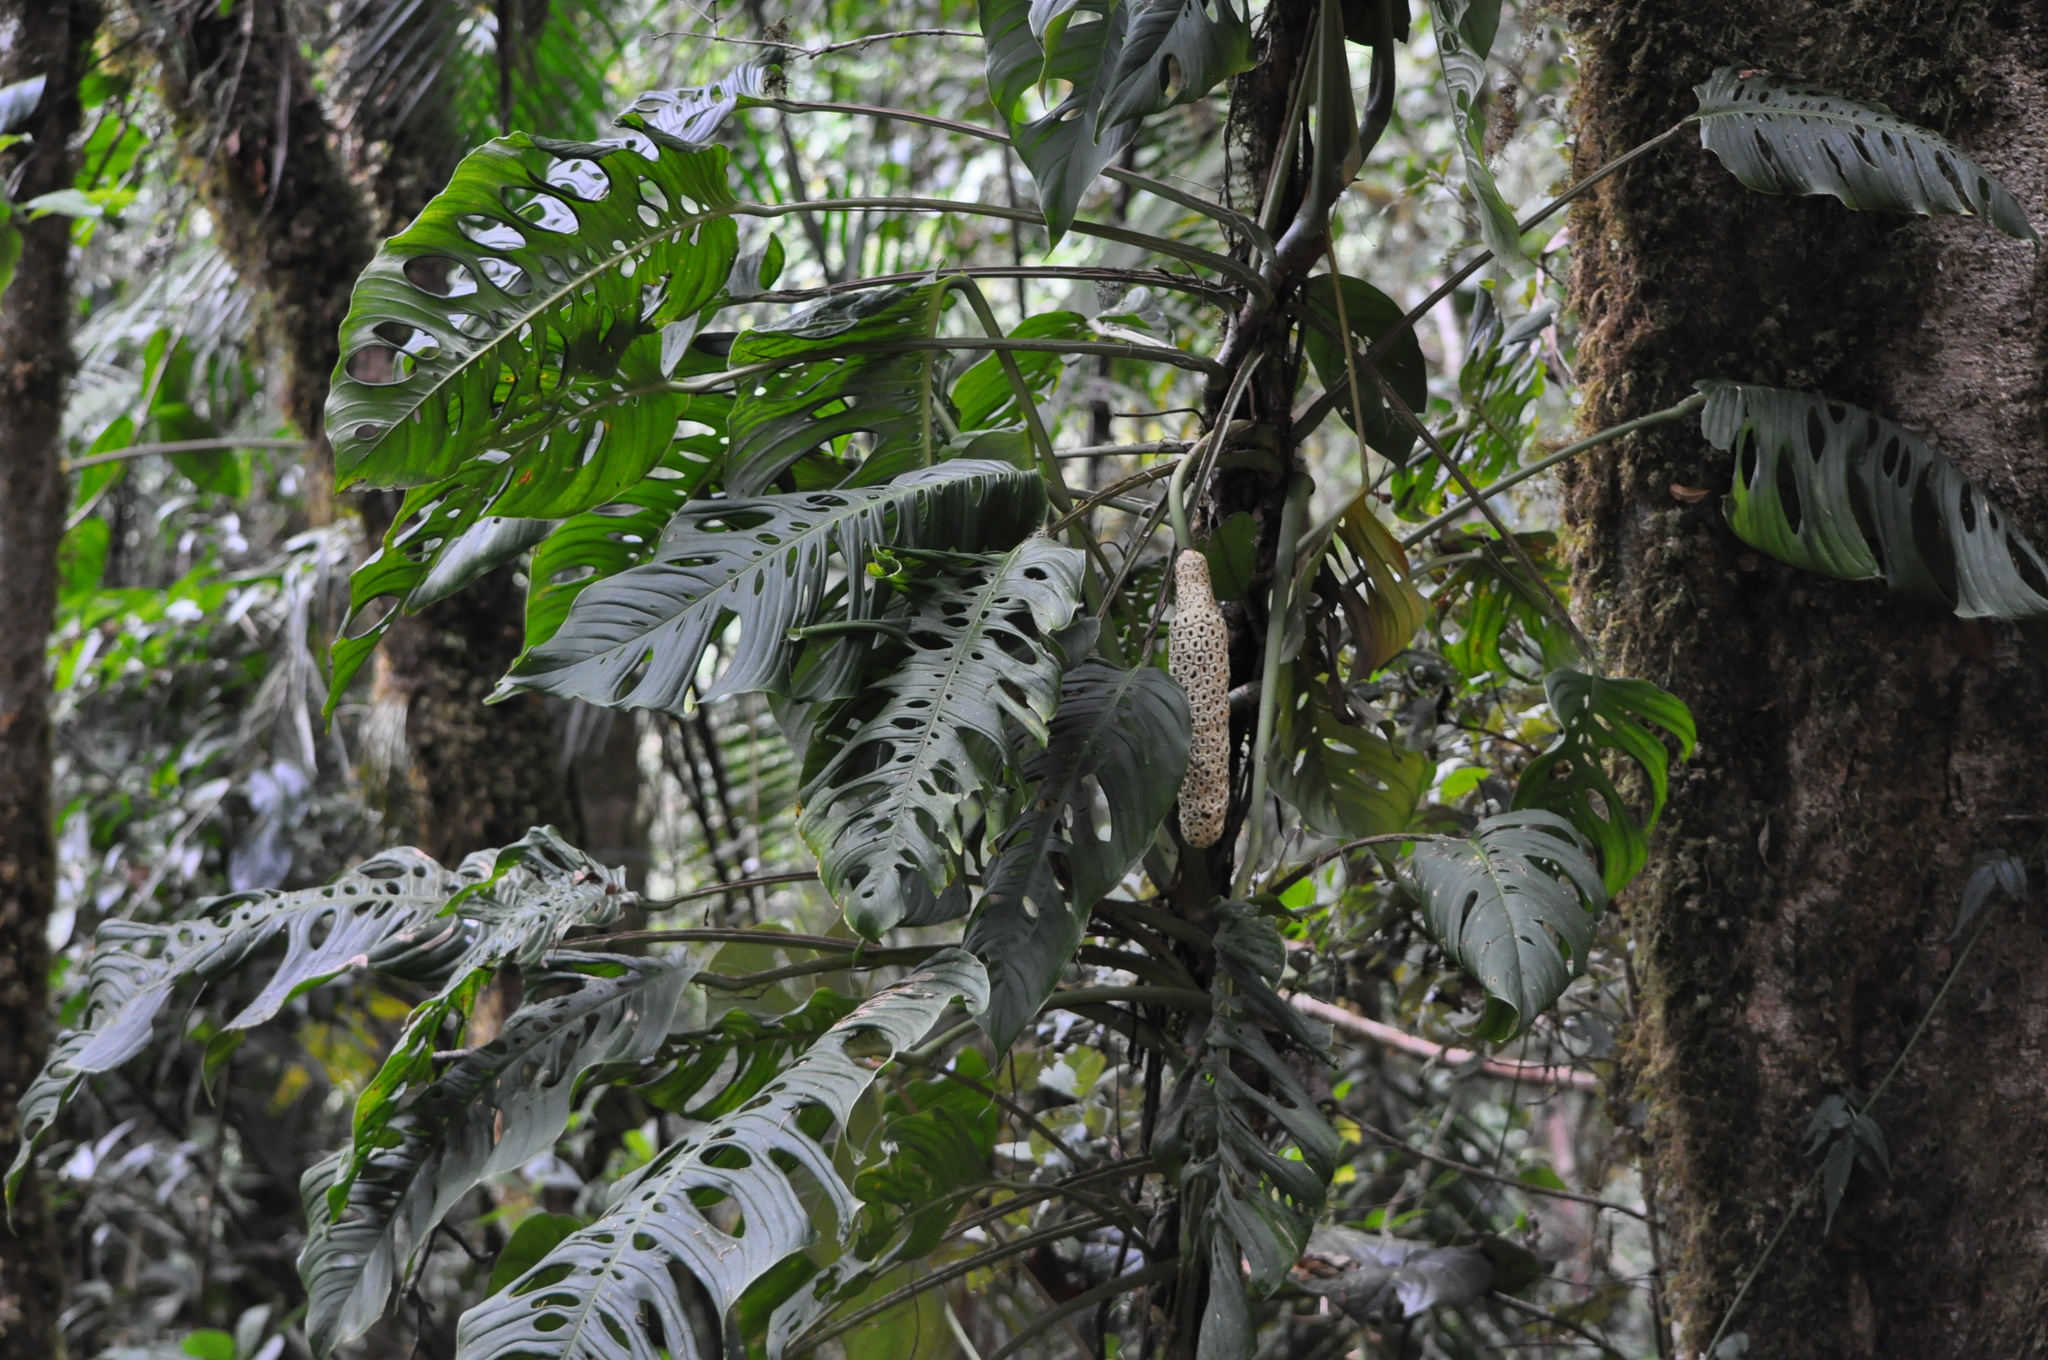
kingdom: Plantae
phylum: Tracheophyta
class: Liliopsida
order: Alismatales
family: Araceae
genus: Monstera
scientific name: Monstera oreophila
